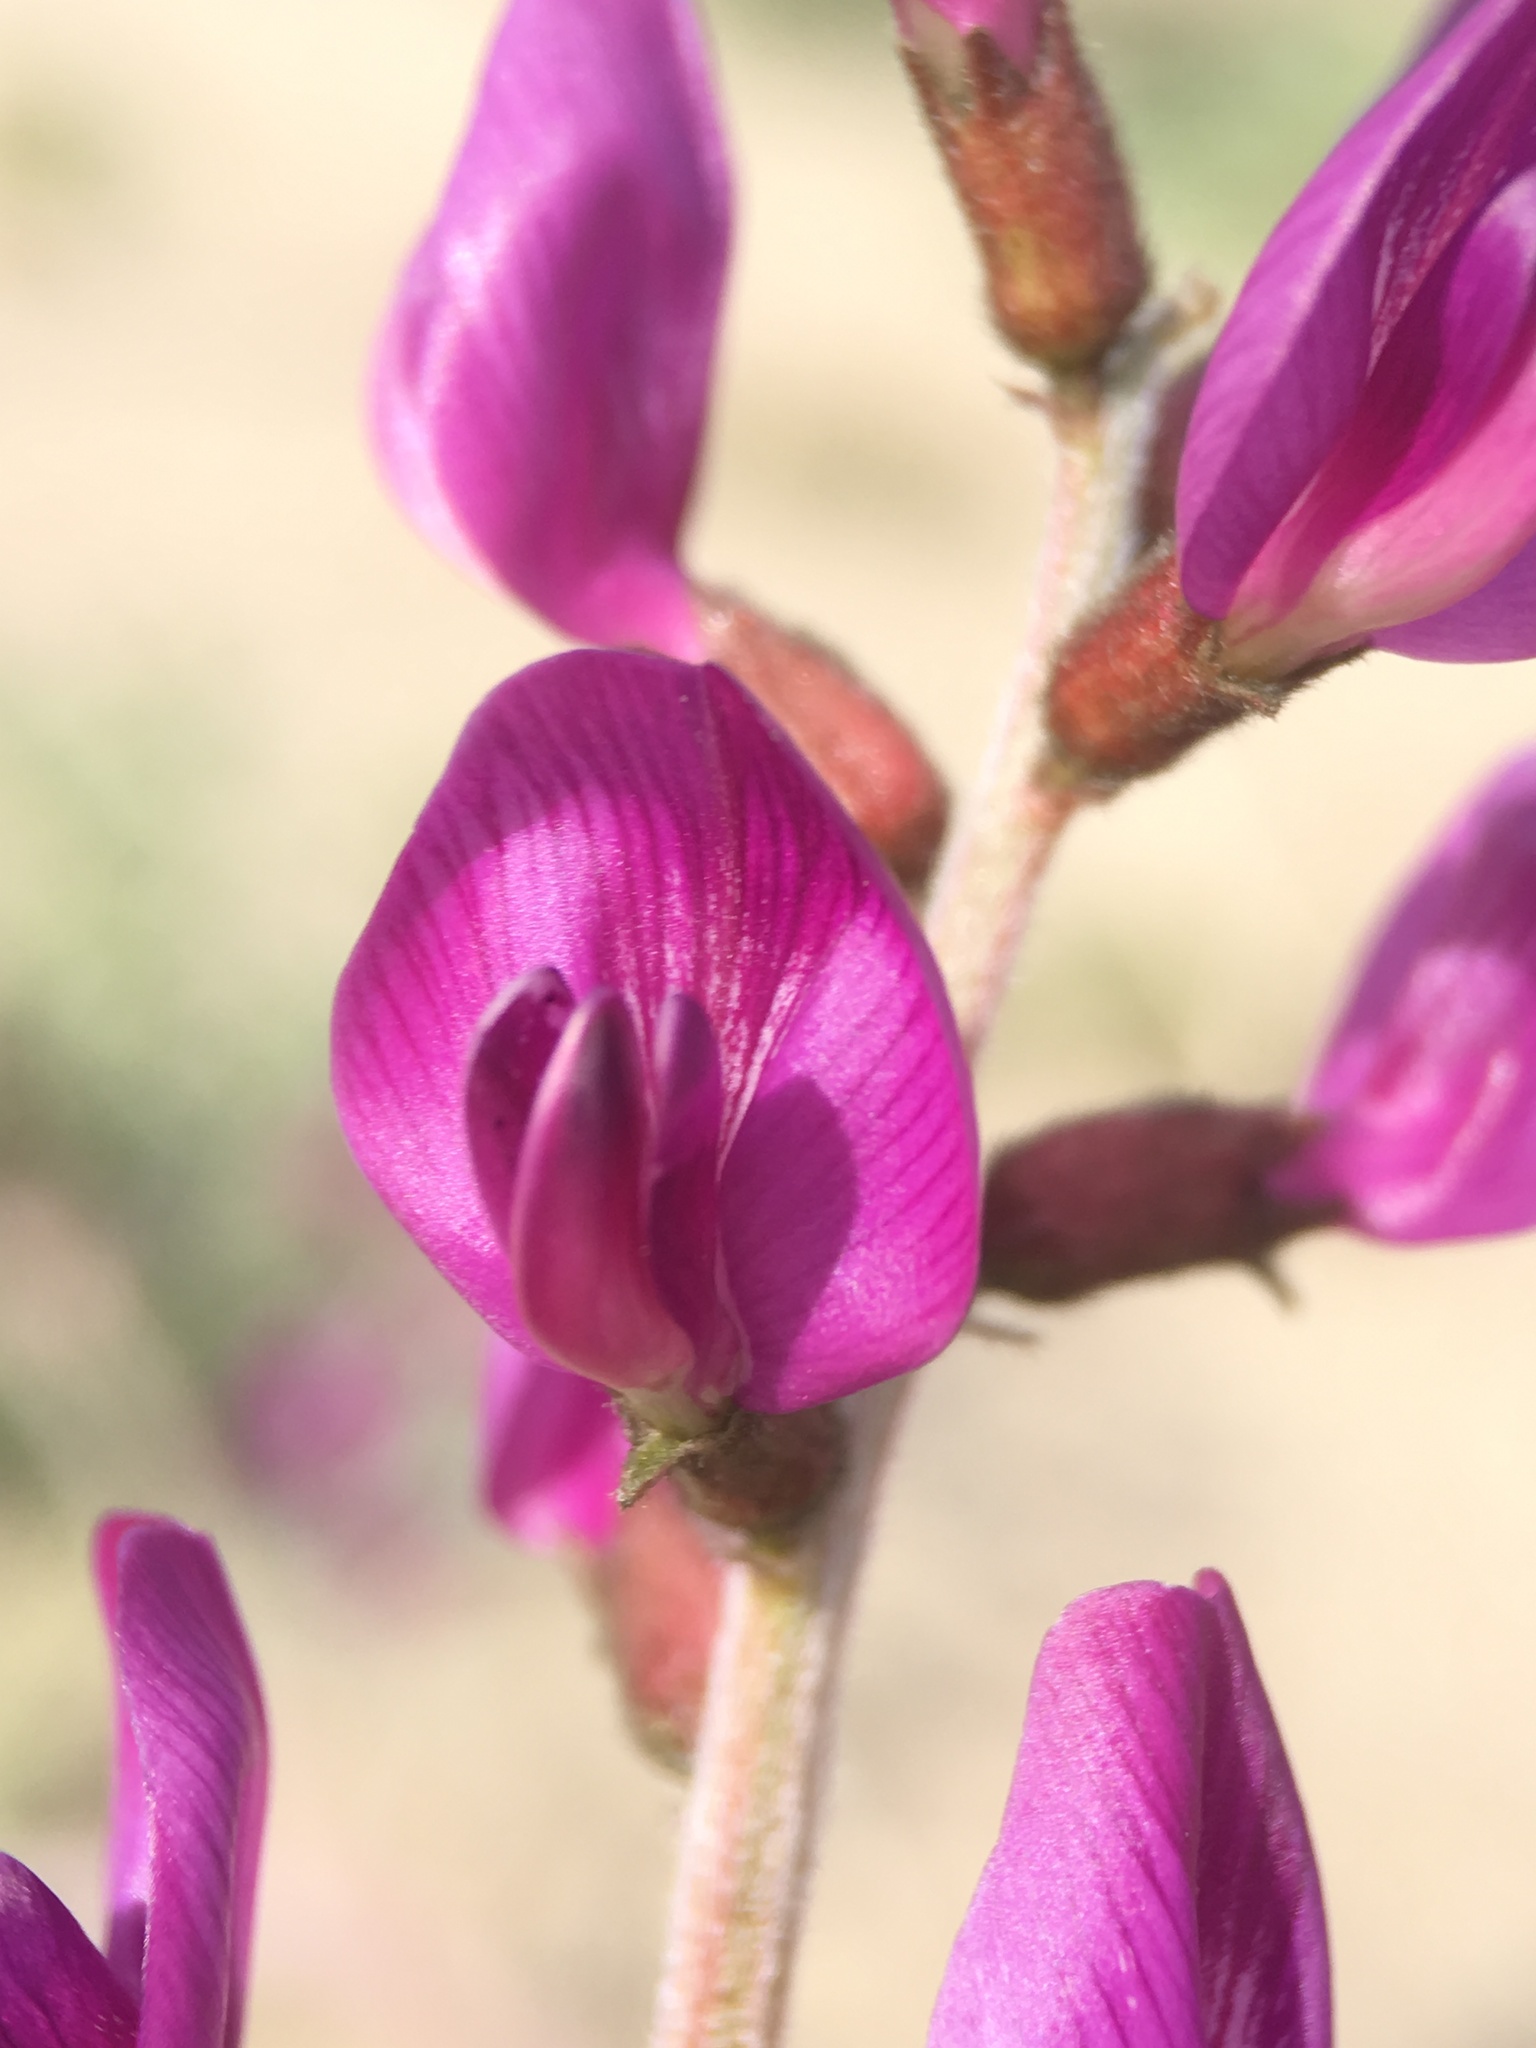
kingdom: Plantae
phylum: Tracheophyta
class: Magnoliopsida
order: Fabales
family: Fabaceae
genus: Astragalus
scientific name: Astragalus lentiginosus
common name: Freckled milkvetch
